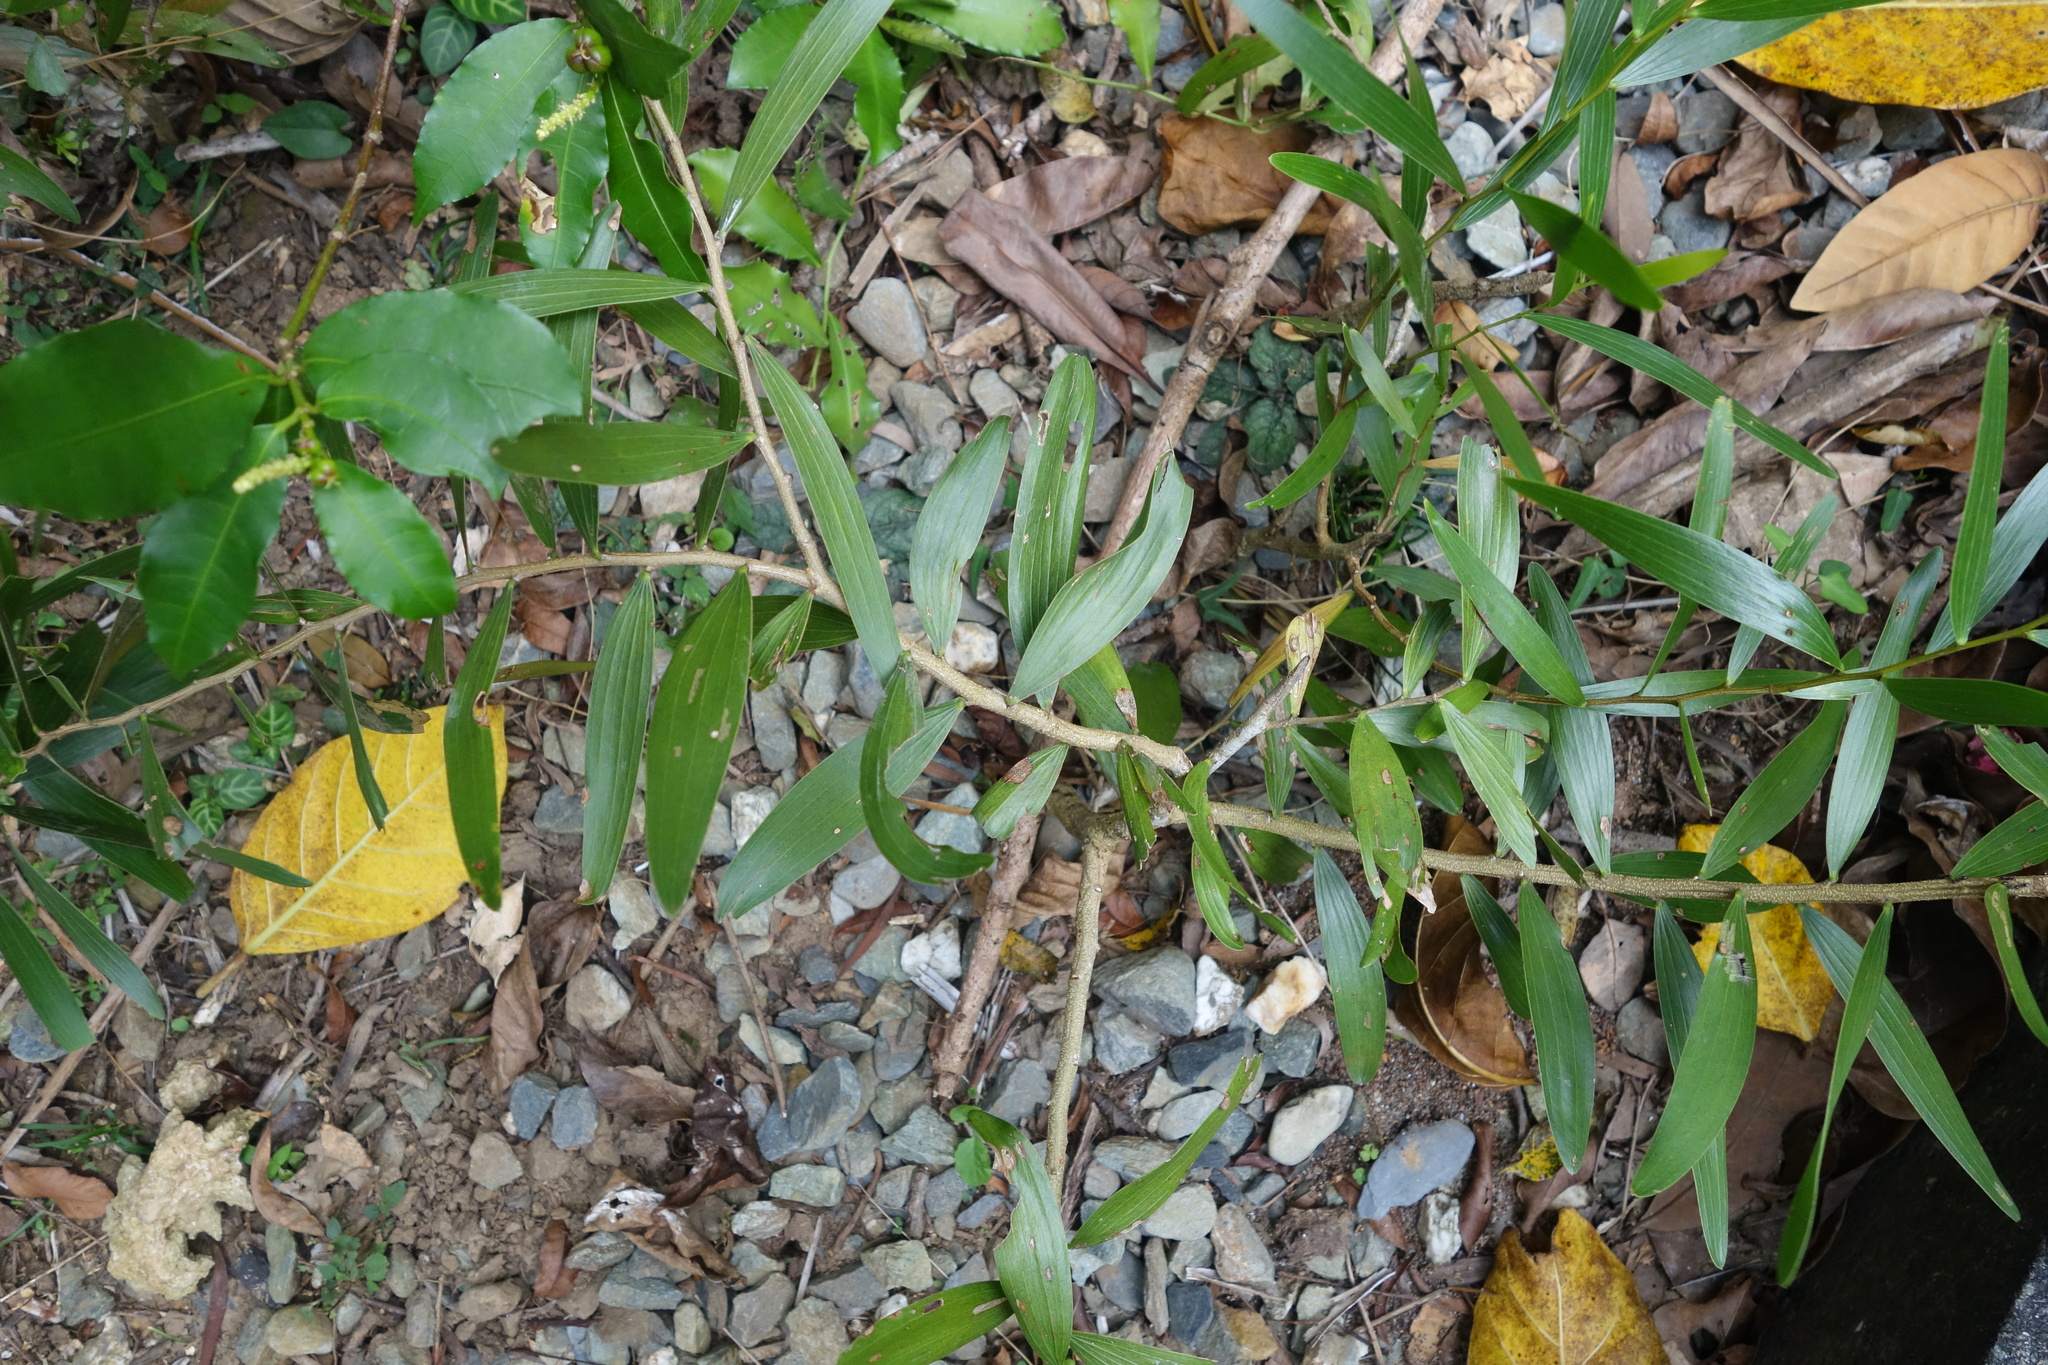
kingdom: Plantae
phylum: Tracheophyta
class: Magnoliopsida
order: Fabales
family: Fabaceae
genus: Acacia
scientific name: Acacia confusa
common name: Formosan koa
